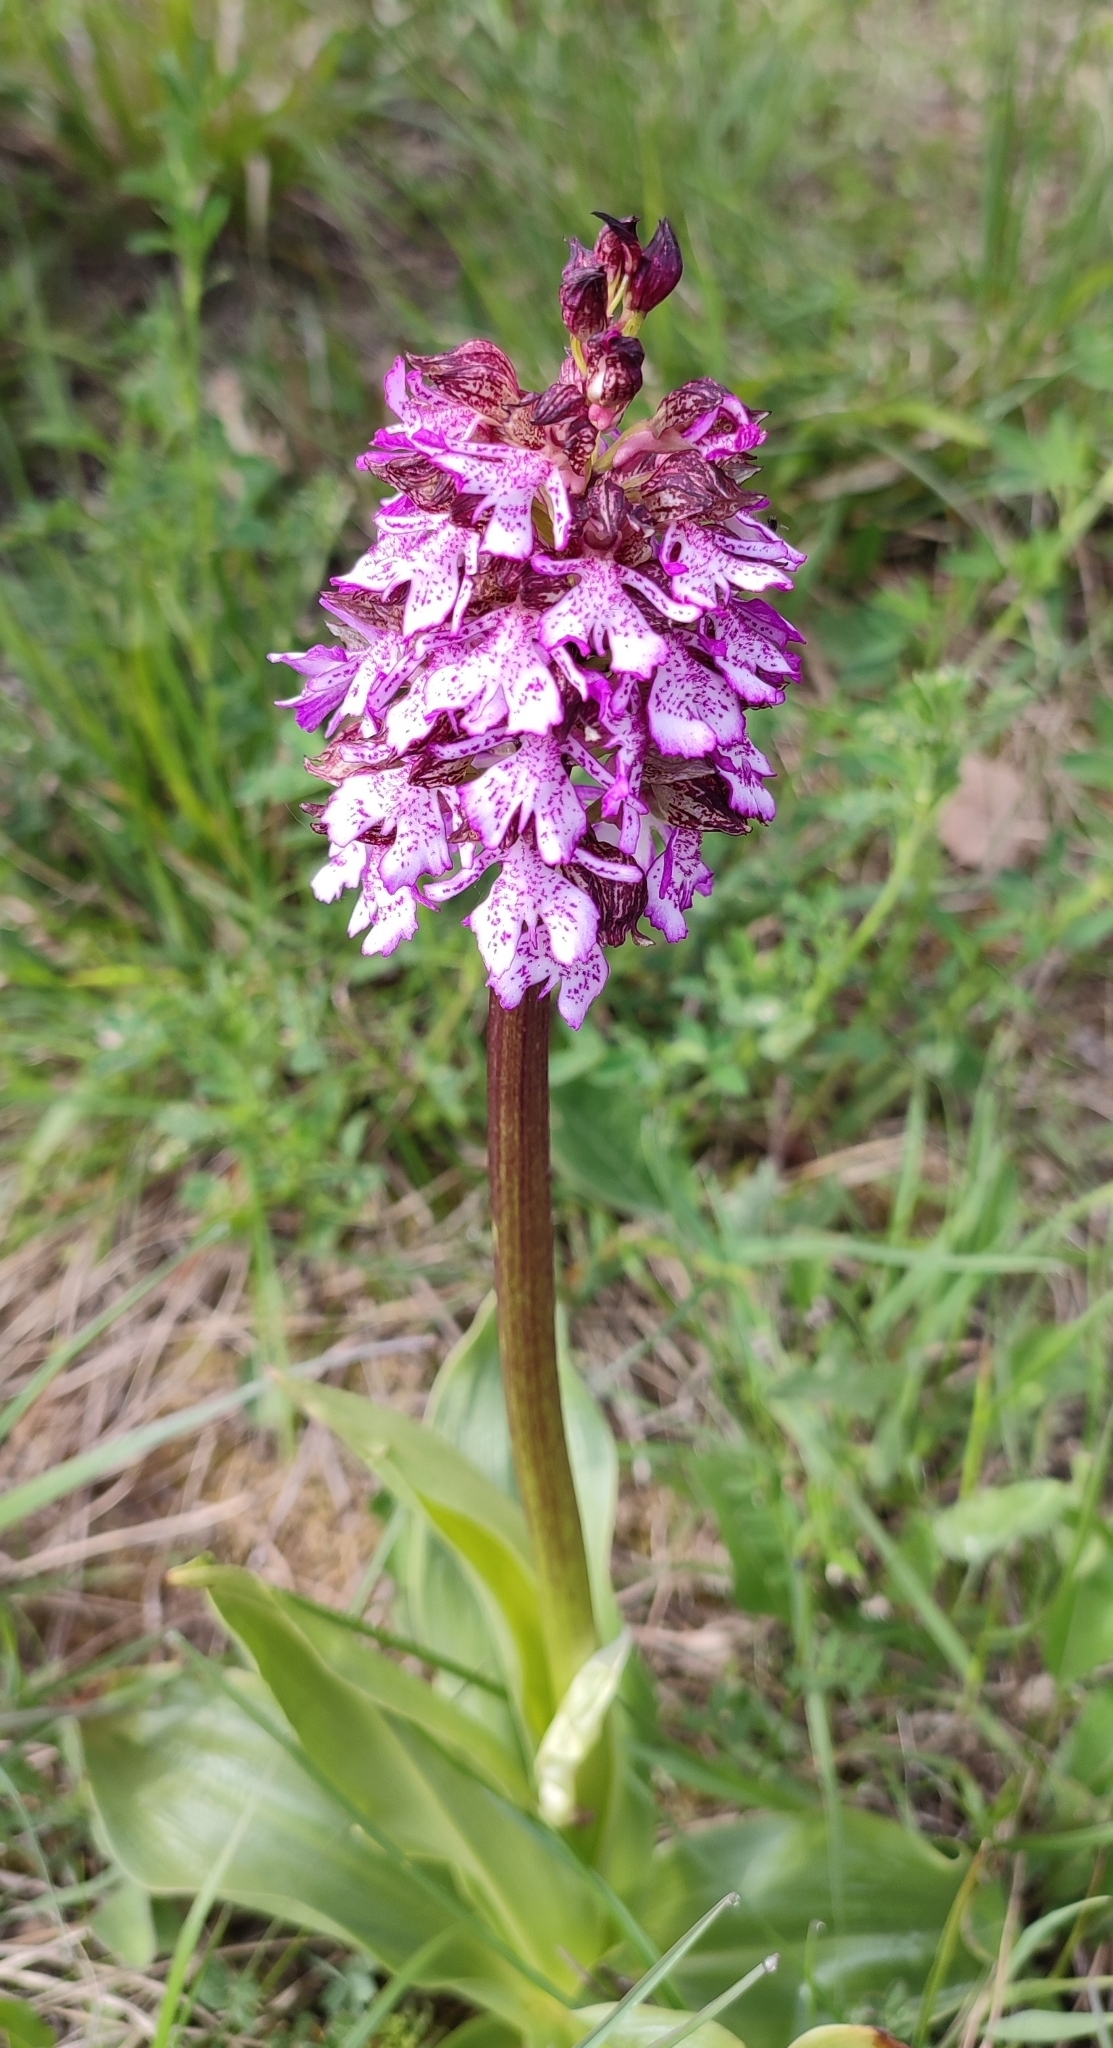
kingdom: Plantae
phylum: Tracheophyta
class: Liliopsida
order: Asparagales
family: Orchidaceae
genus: Orchis
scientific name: Orchis purpurea
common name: Lady orchid
